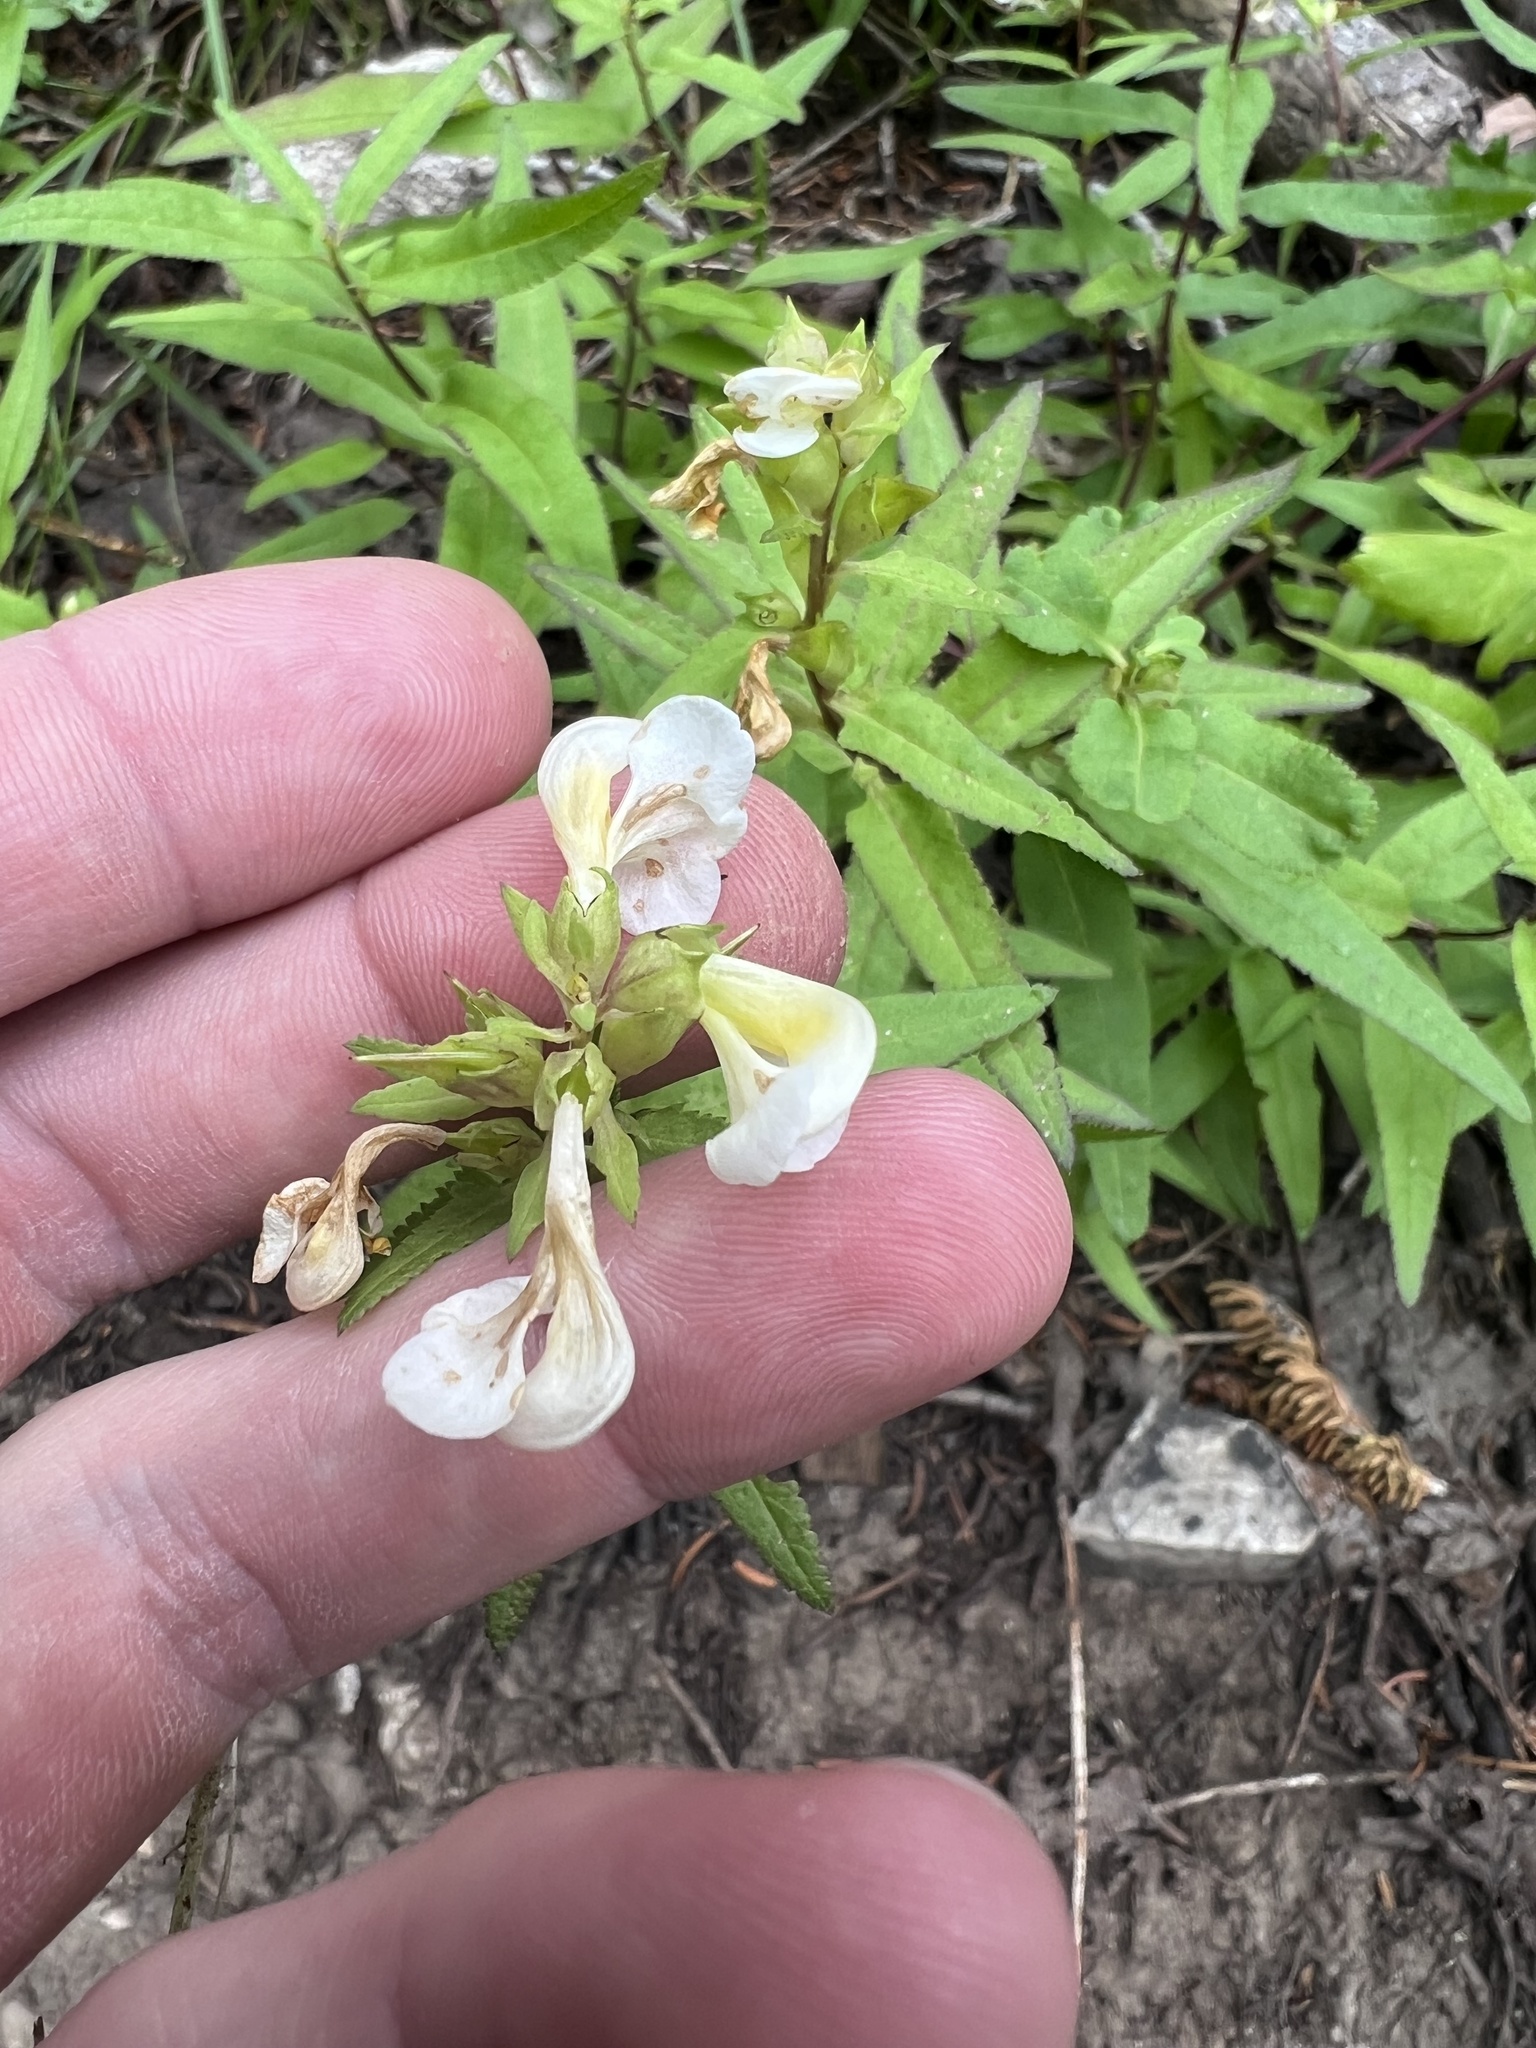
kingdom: Plantae
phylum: Tracheophyta
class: Magnoliopsida
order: Lamiales
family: Orobanchaceae
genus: Pedicularis
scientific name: Pedicularis racemosa
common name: Leafy lousewort
